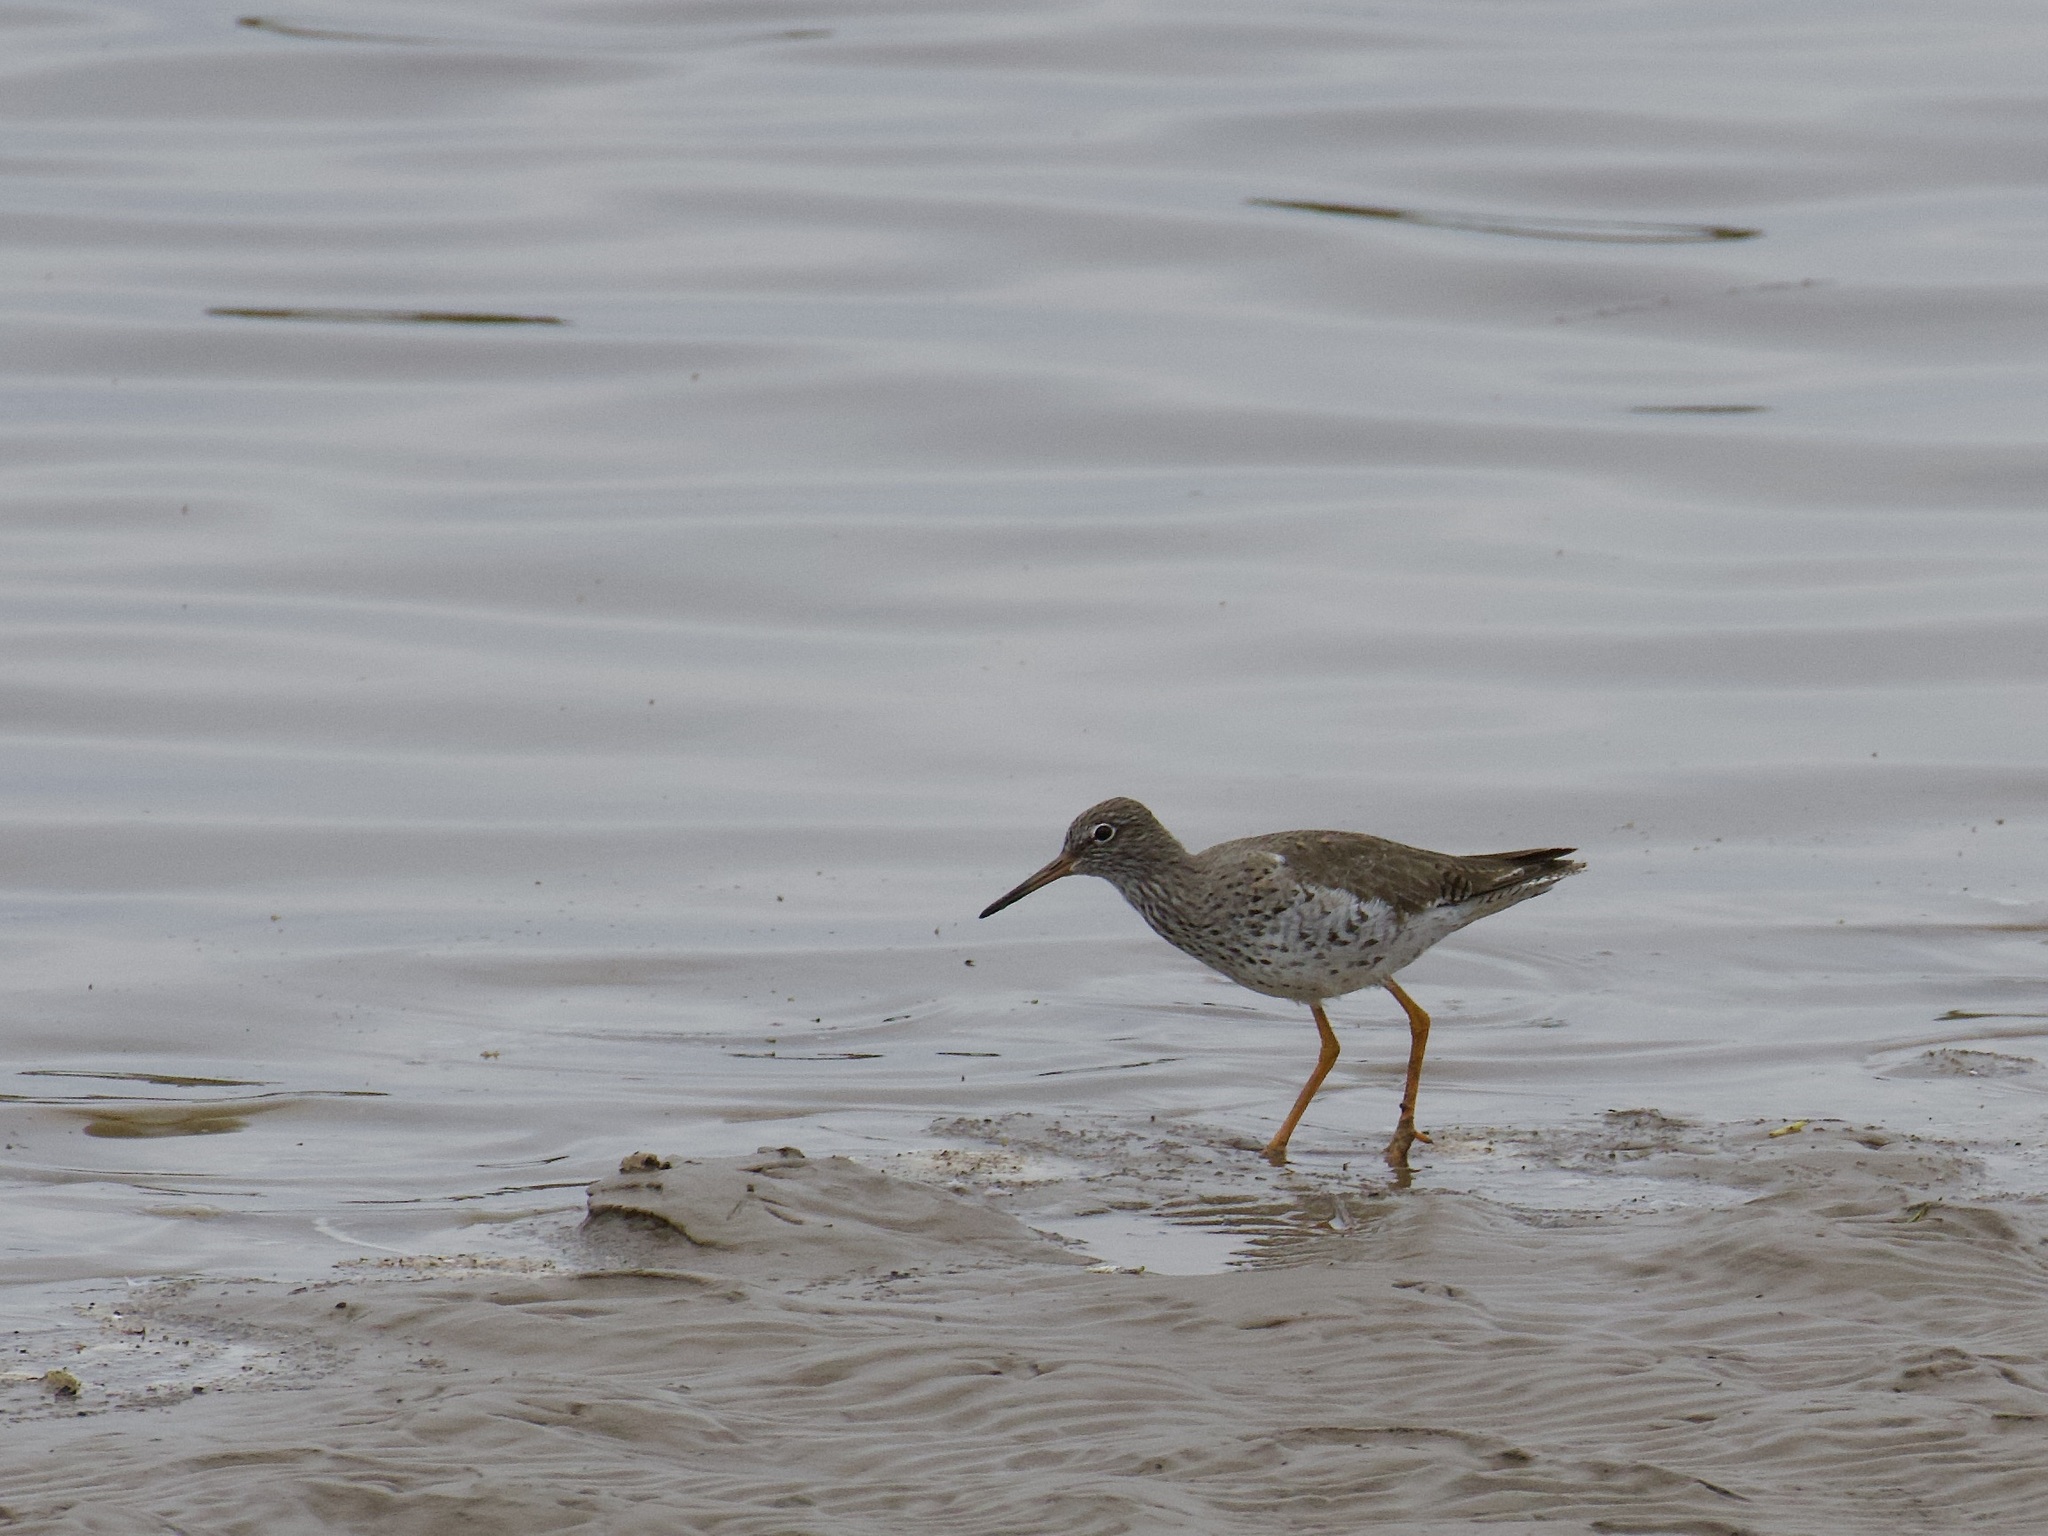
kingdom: Animalia
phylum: Chordata
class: Aves
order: Charadriiformes
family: Scolopacidae
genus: Tringa
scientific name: Tringa totanus
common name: Common redshank
